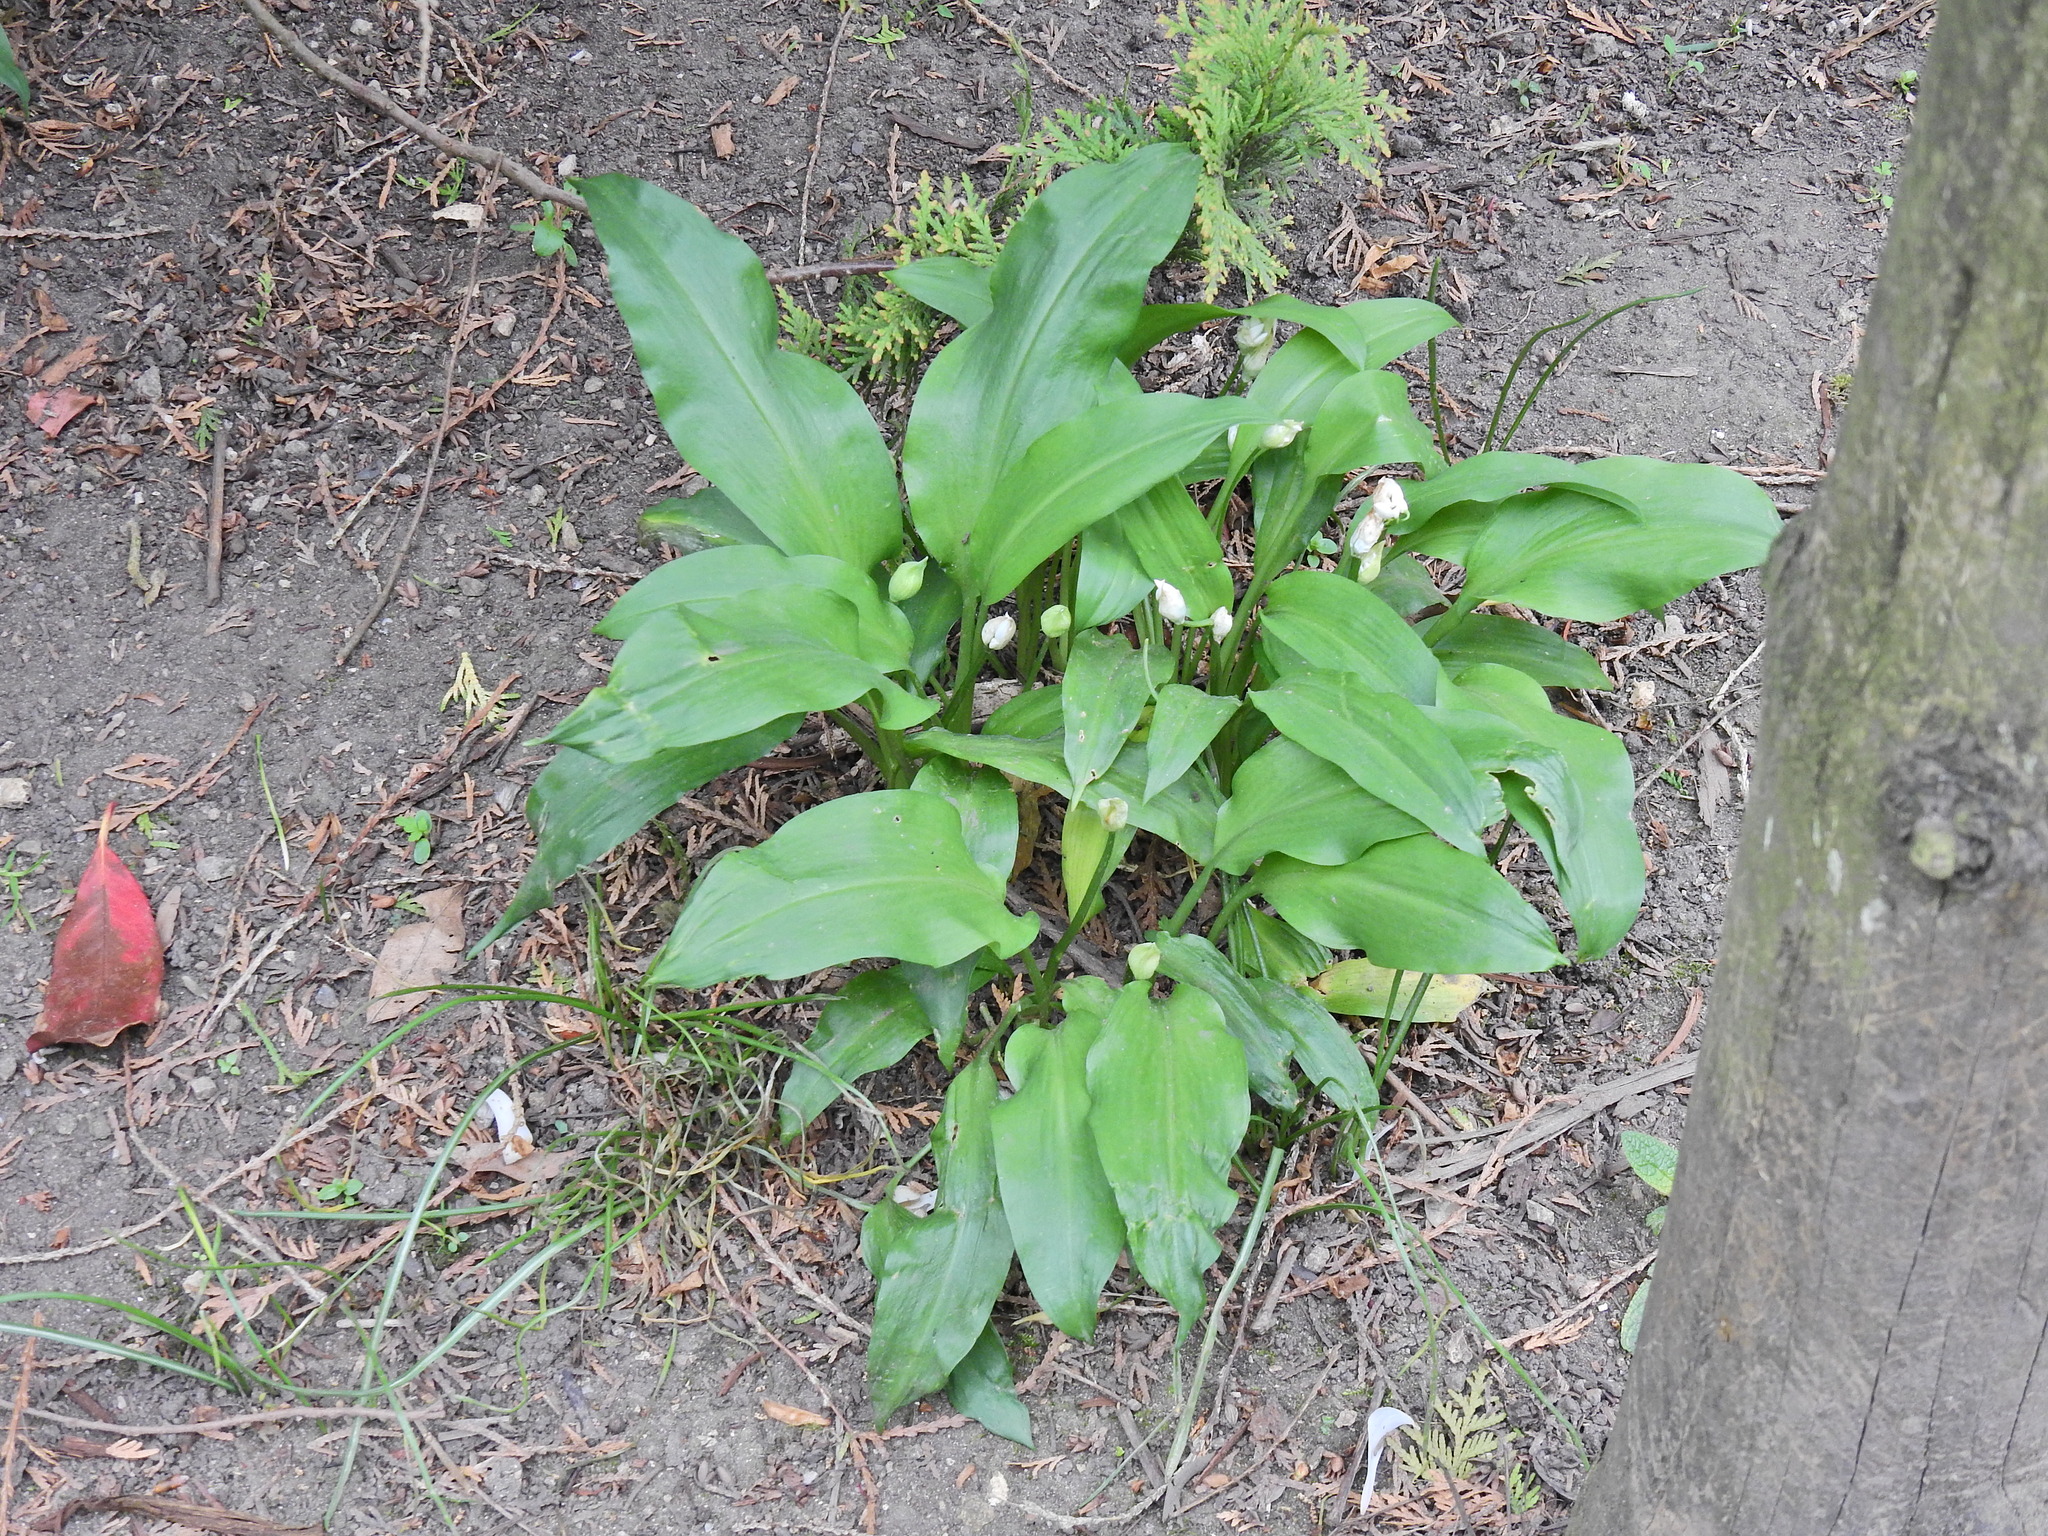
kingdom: Plantae
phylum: Tracheophyta
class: Liliopsida
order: Asparagales
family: Amaryllidaceae
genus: Allium
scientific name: Allium ursinum
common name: Ramsons
